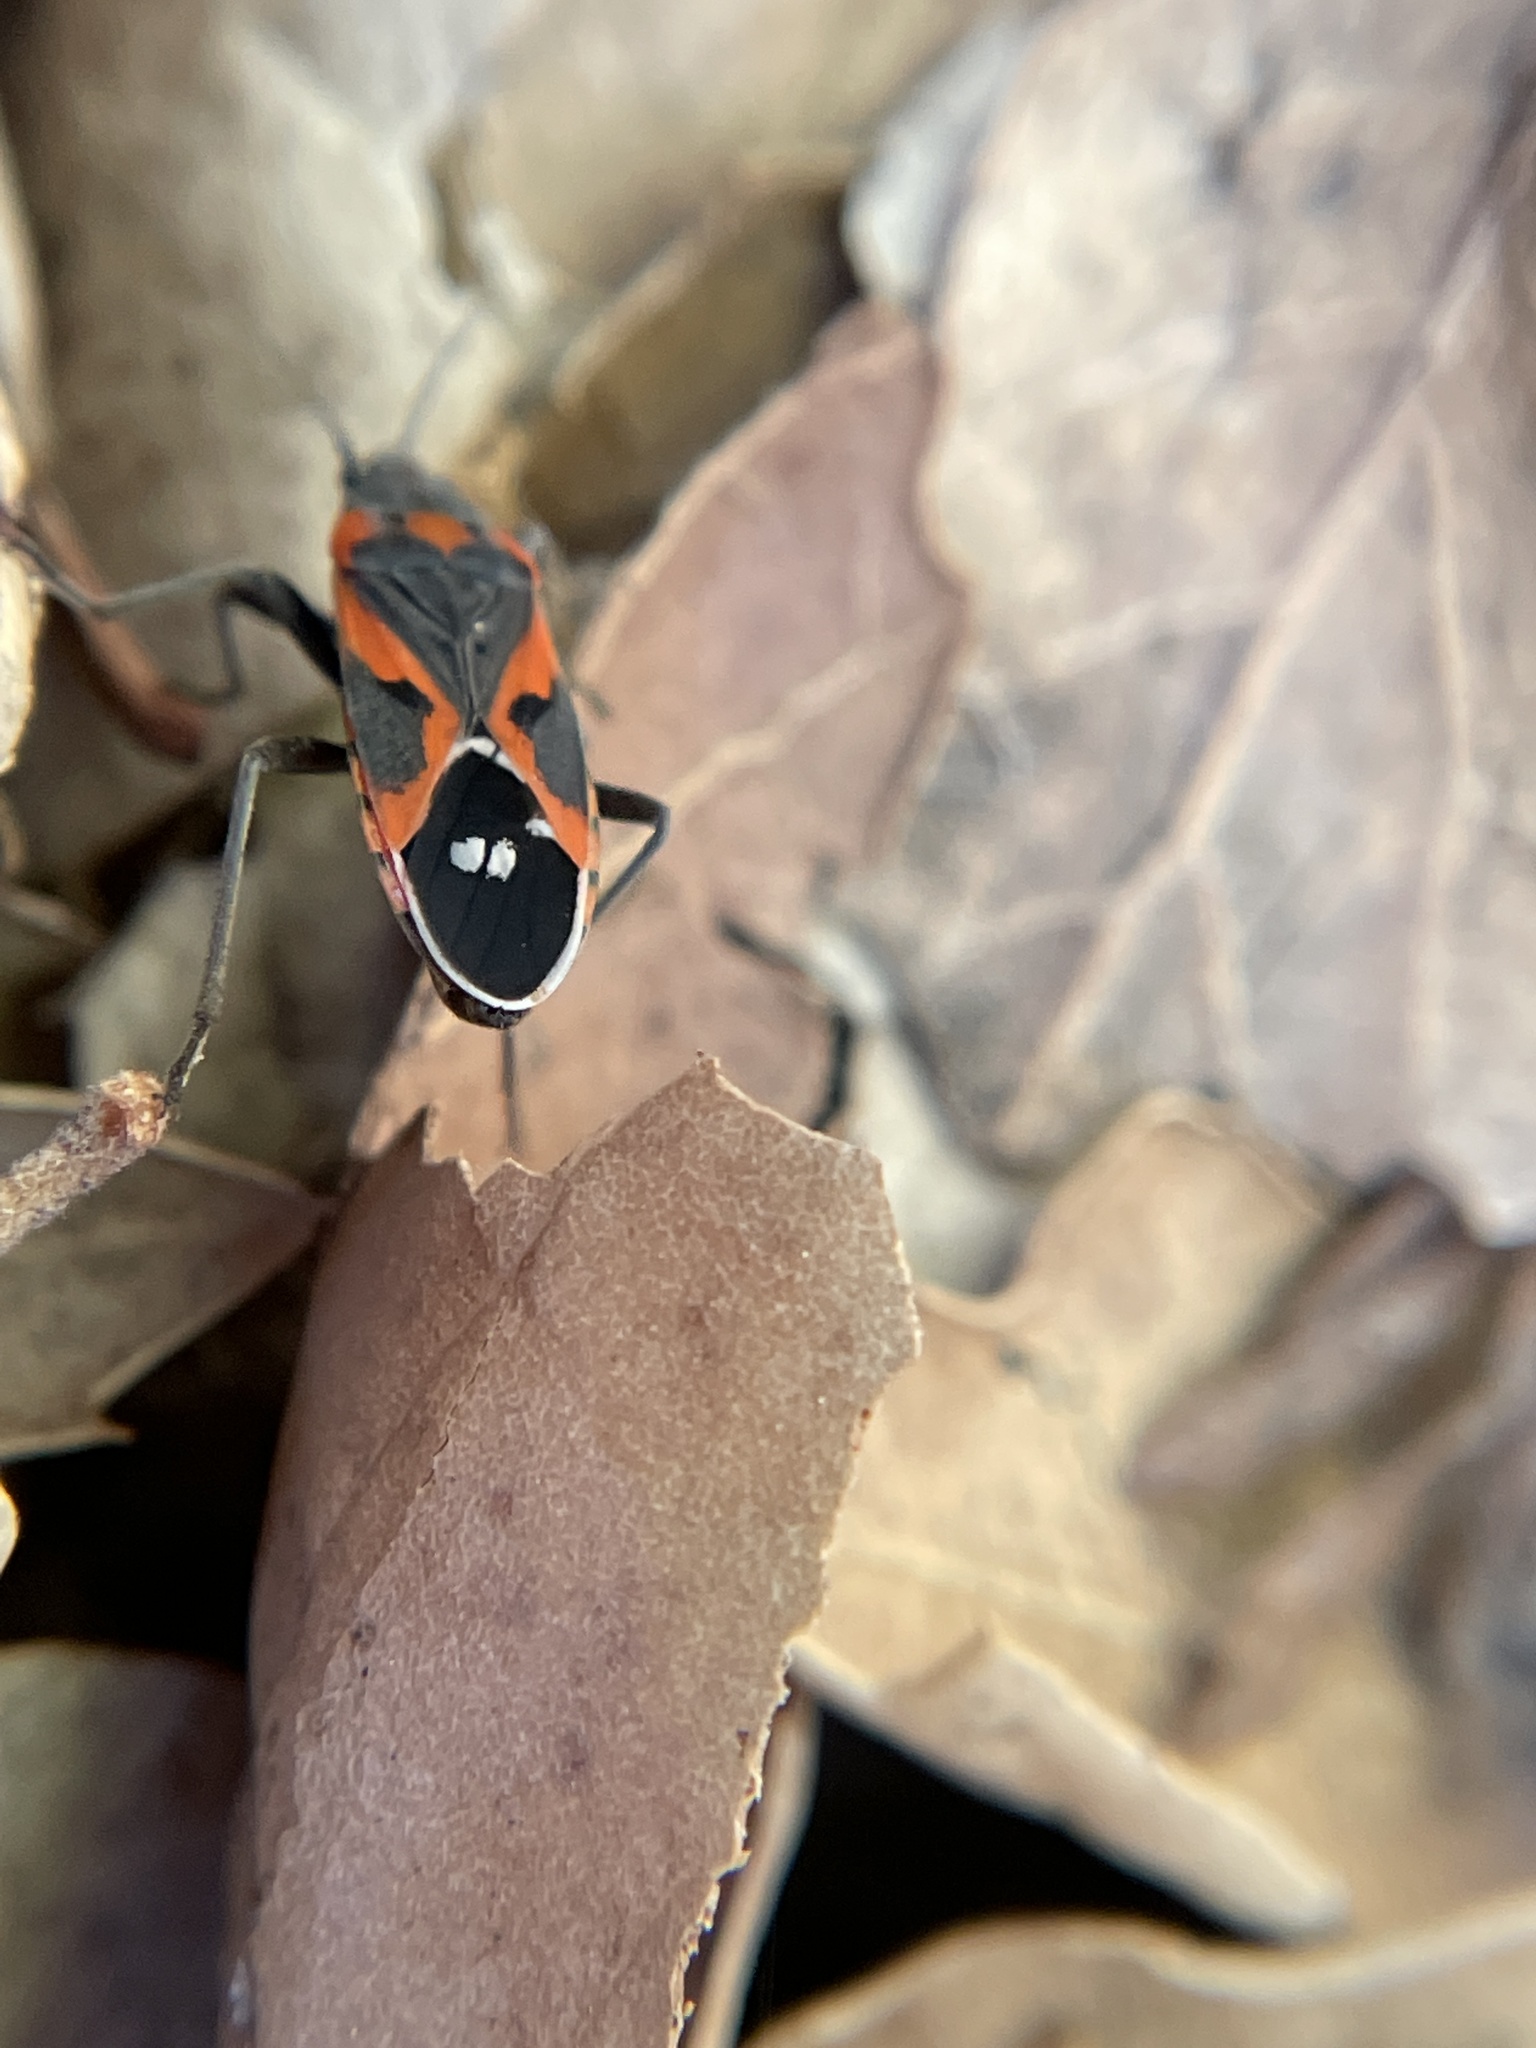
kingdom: Animalia
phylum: Arthropoda
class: Insecta
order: Hemiptera
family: Lygaeidae
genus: Lygaeus
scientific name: Lygaeus kalmii
